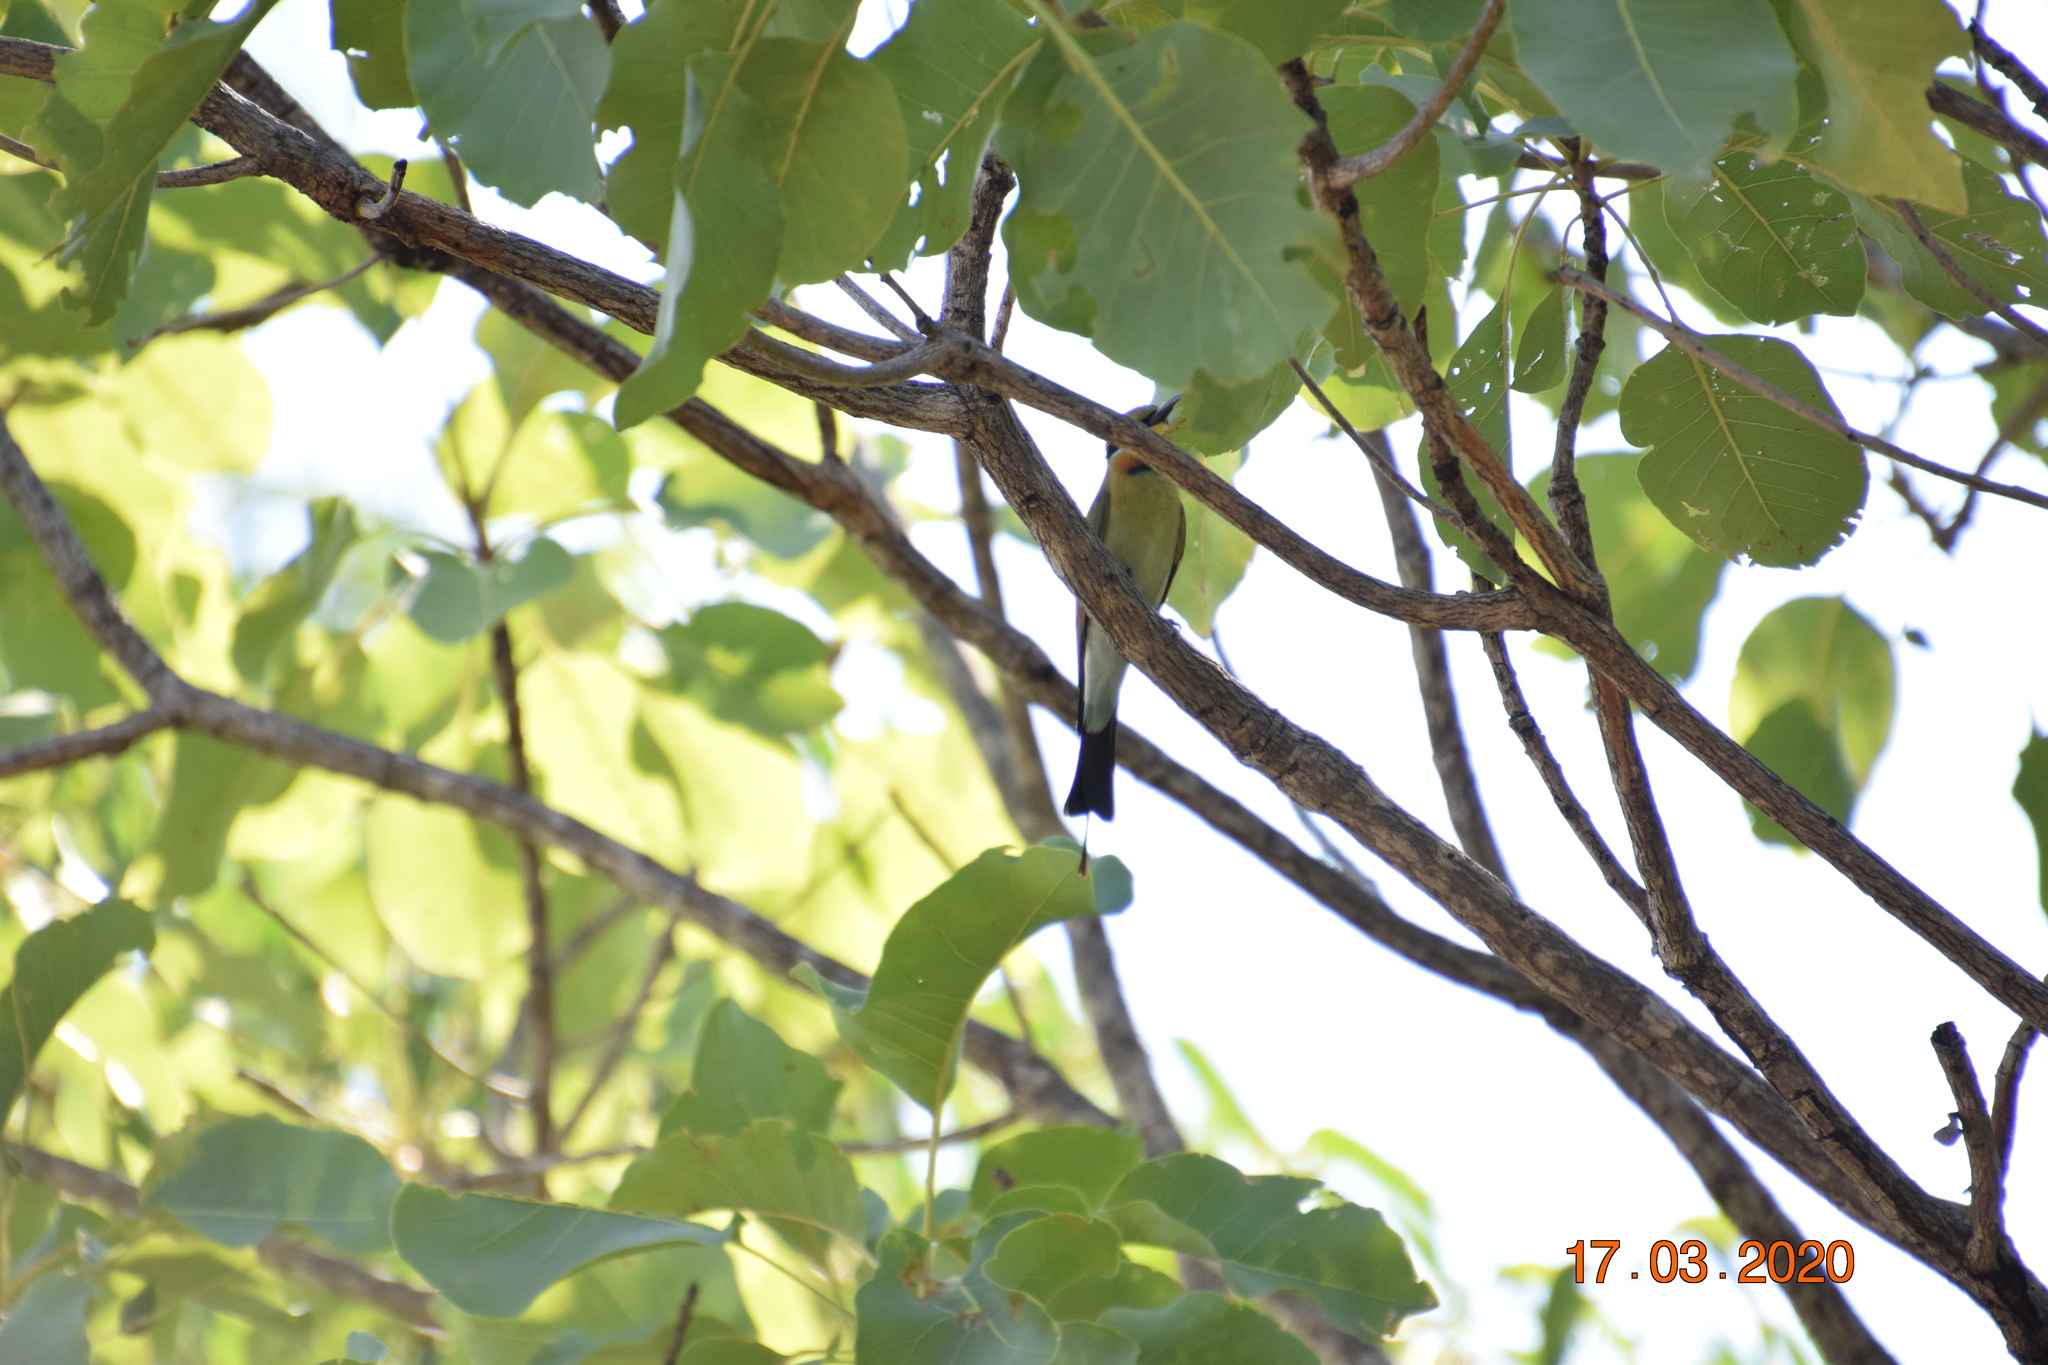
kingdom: Animalia
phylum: Chordata
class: Aves
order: Coraciiformes
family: Meropidae
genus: Merops
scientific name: Merops ornatus
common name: Rainbow bee-eater
